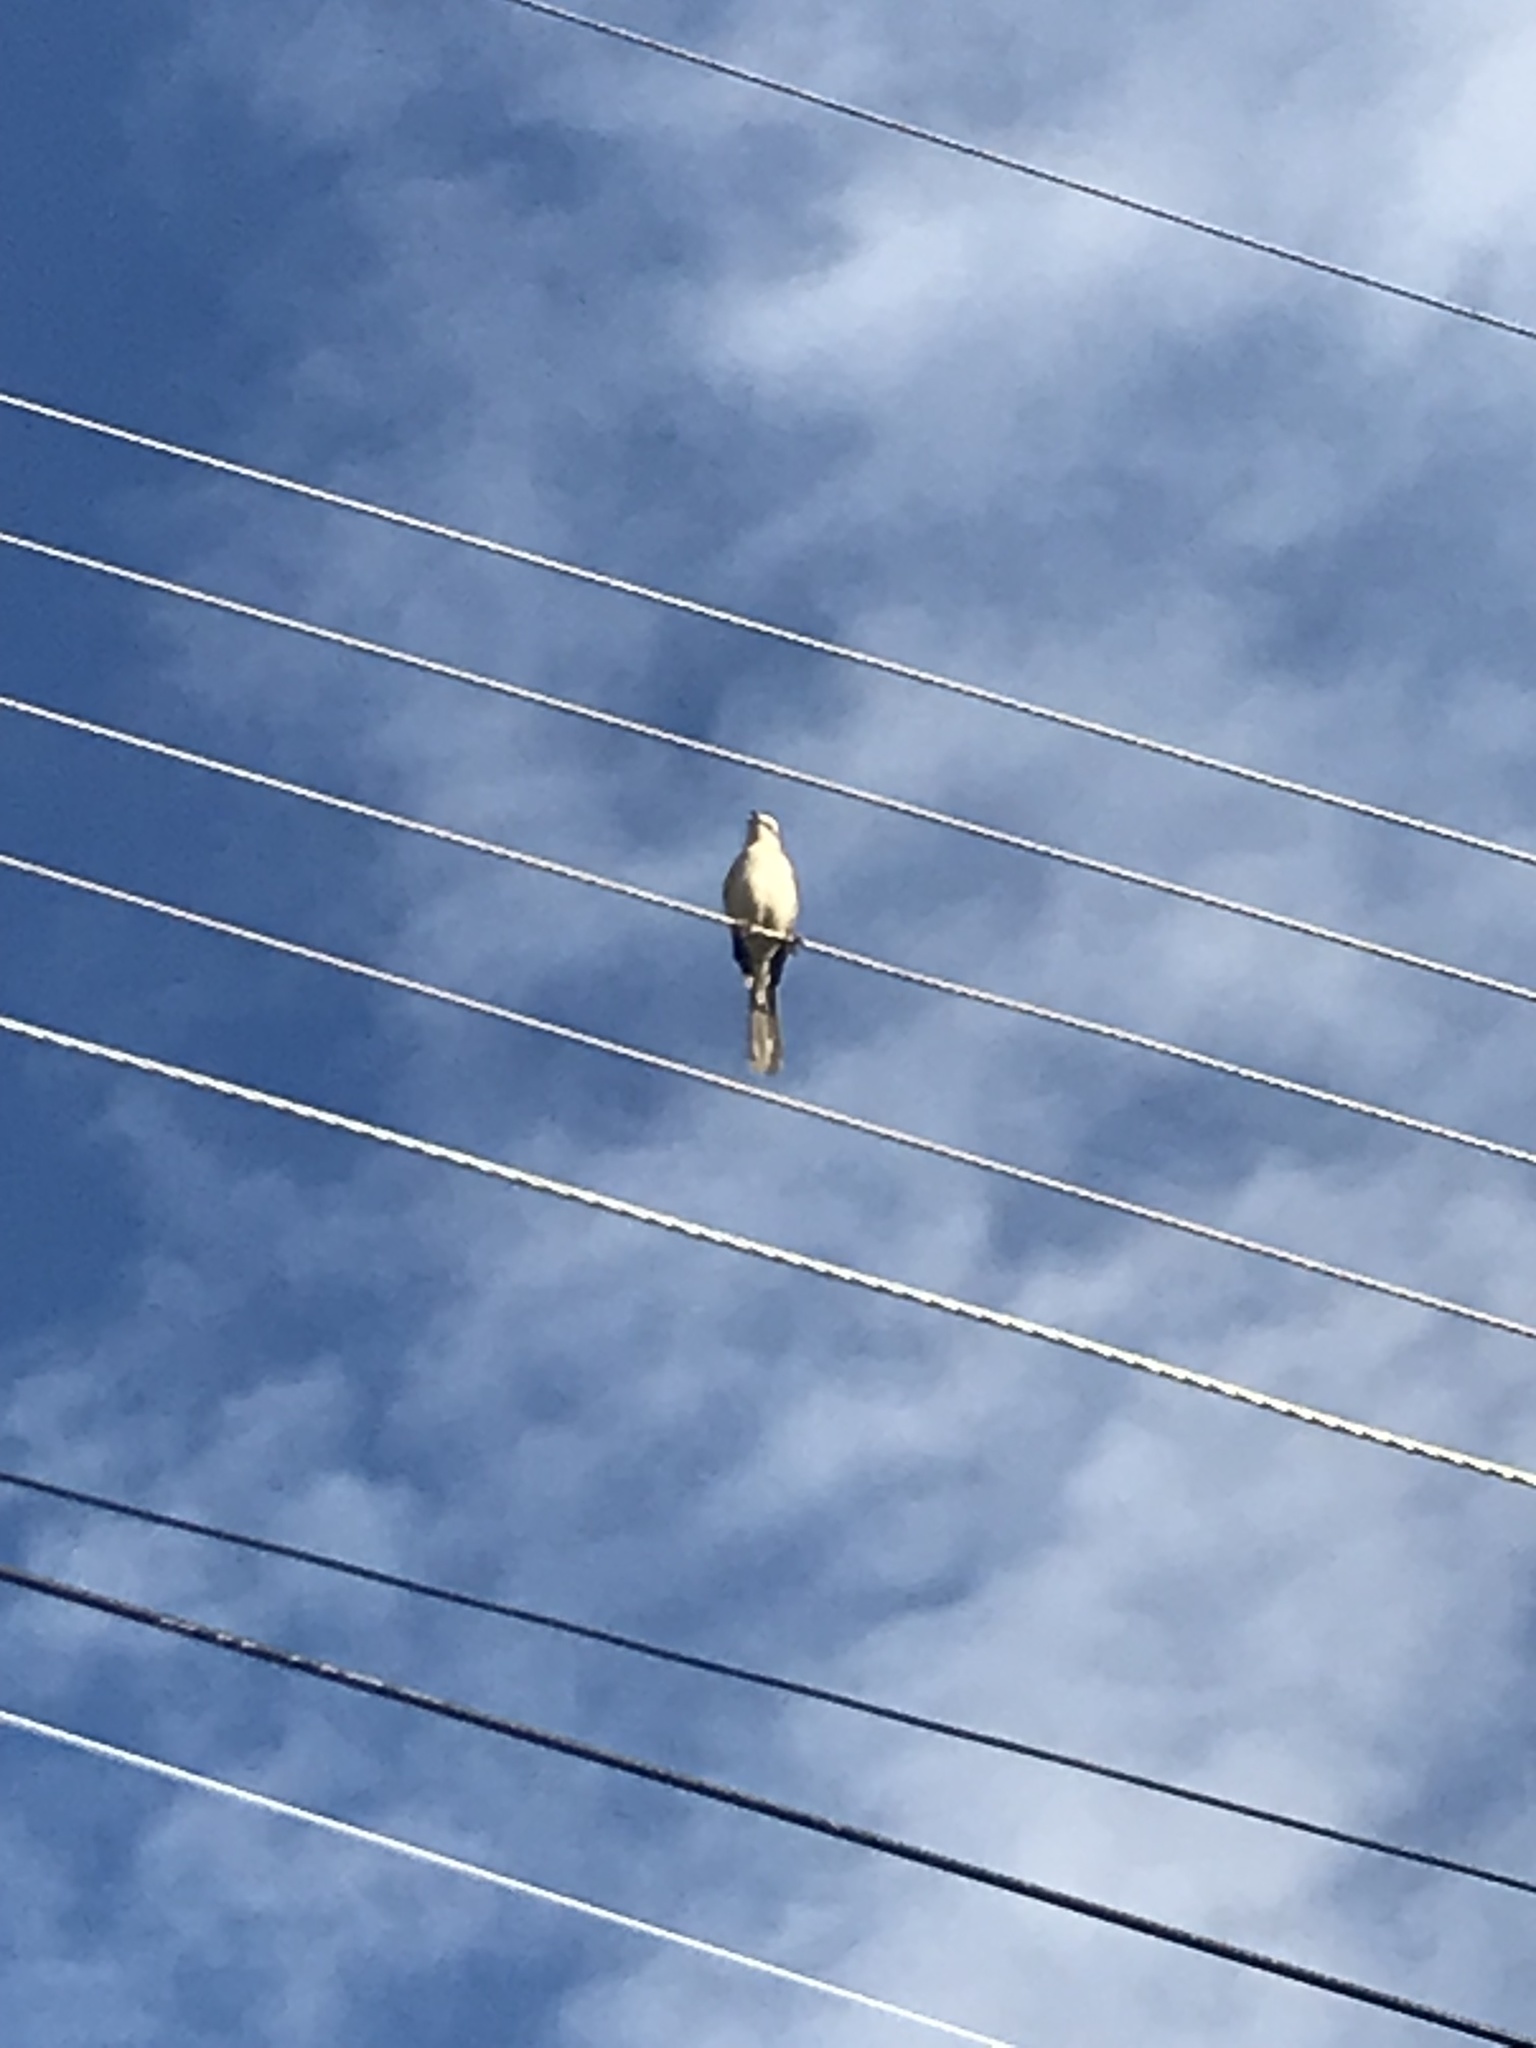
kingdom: Animalia
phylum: Chordata
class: Aves
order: Passeriformes
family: Mimidae
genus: Mimus
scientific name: Mimus gilvus
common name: Tropical mockingbird
